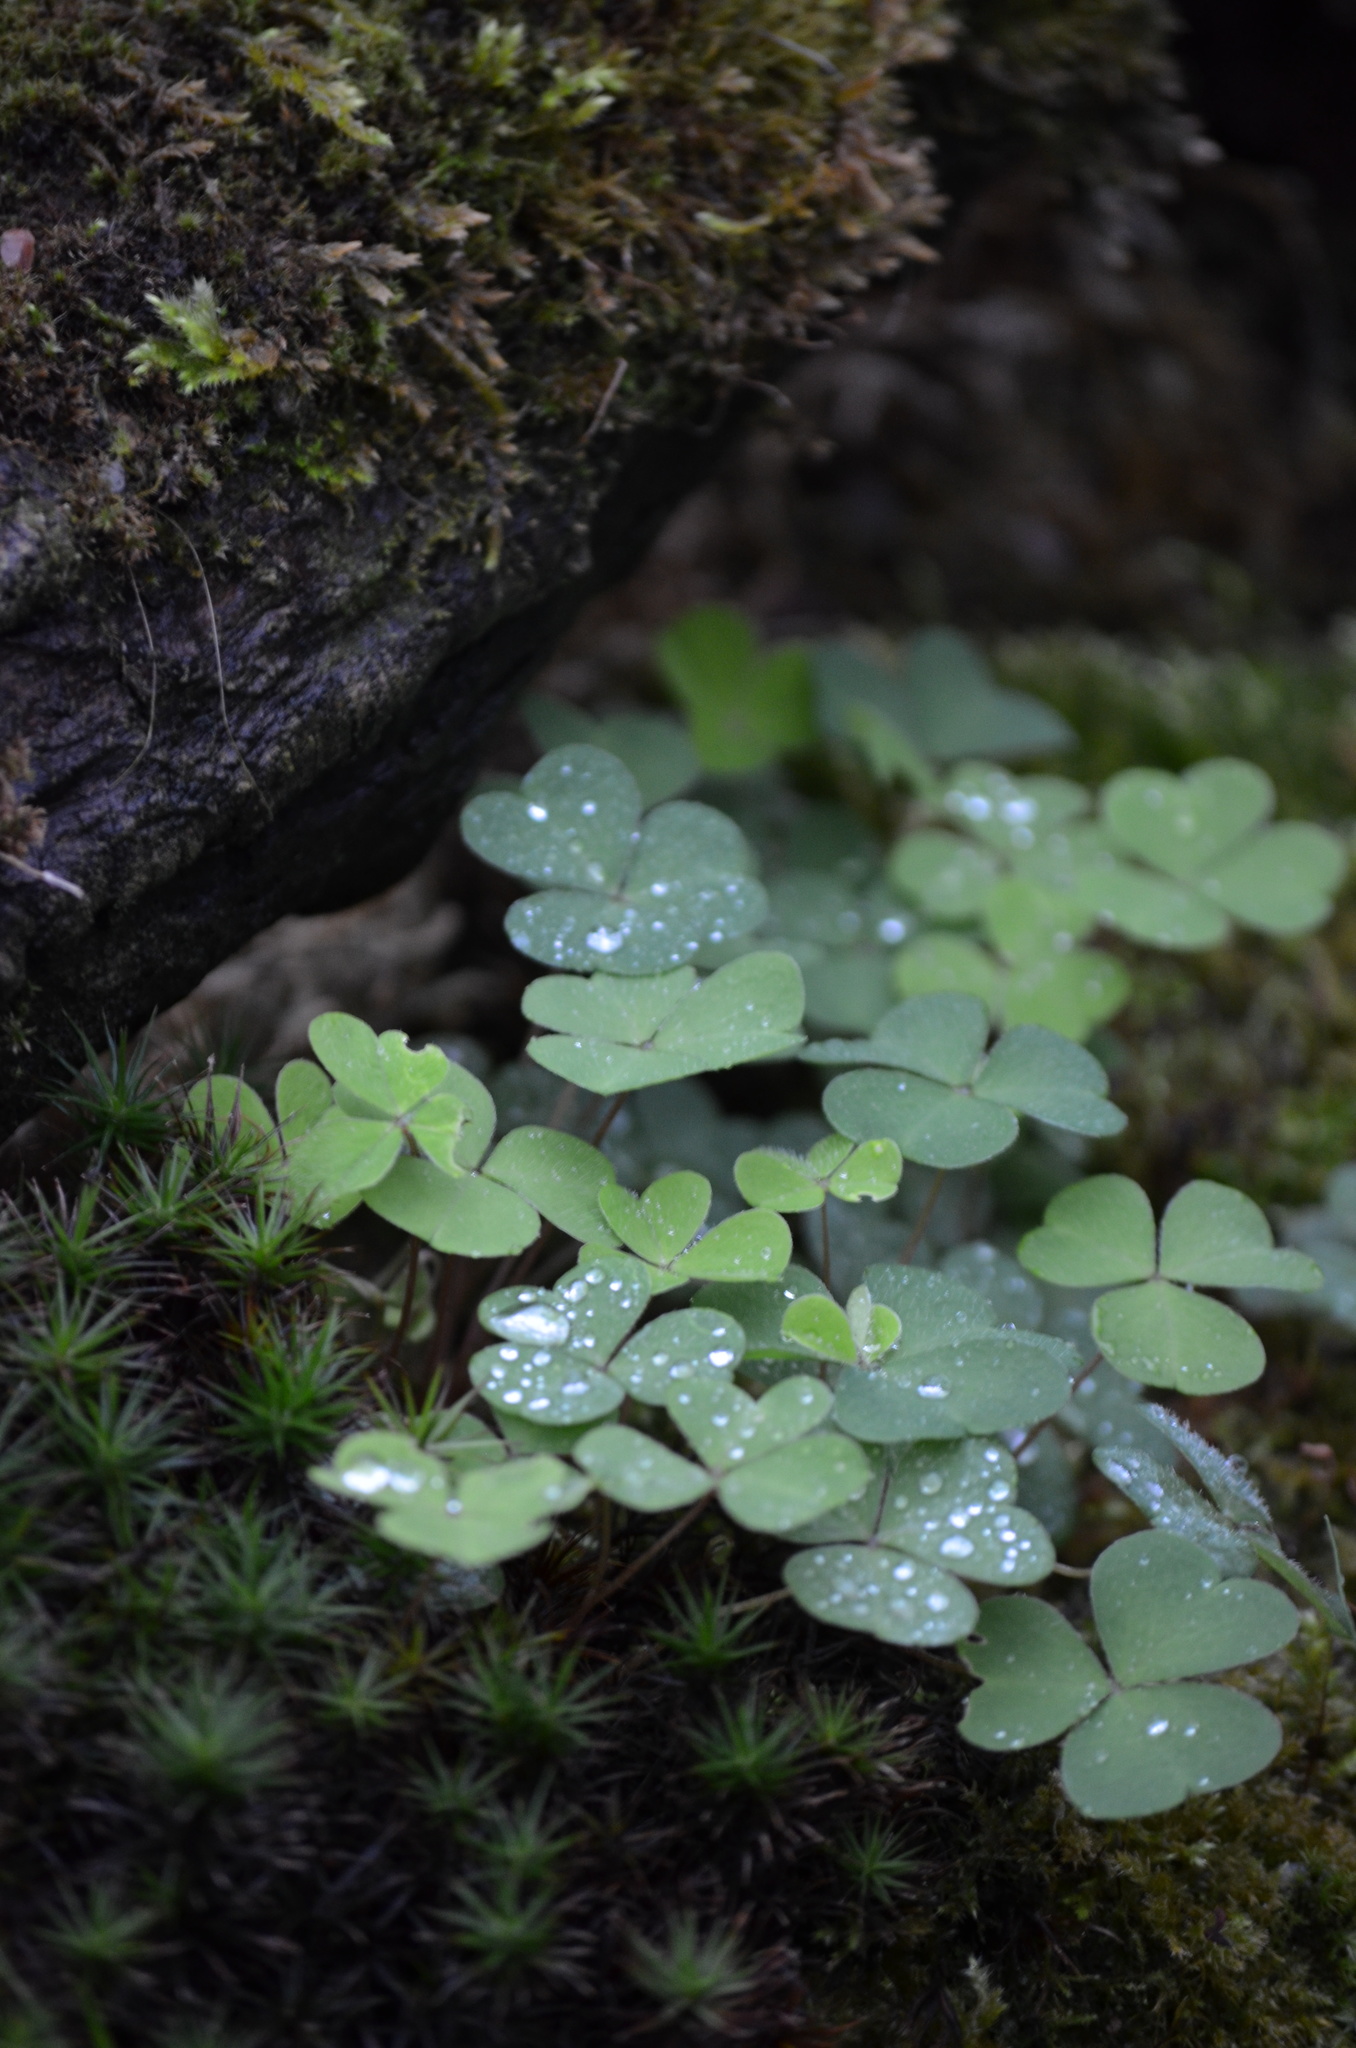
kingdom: Plantae
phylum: Tracheophyta
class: Magnoliopsida
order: Oxalidales
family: Oxalidaceae
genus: Oxalis
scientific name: Oxalis acetosella
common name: Wood-sorrel
